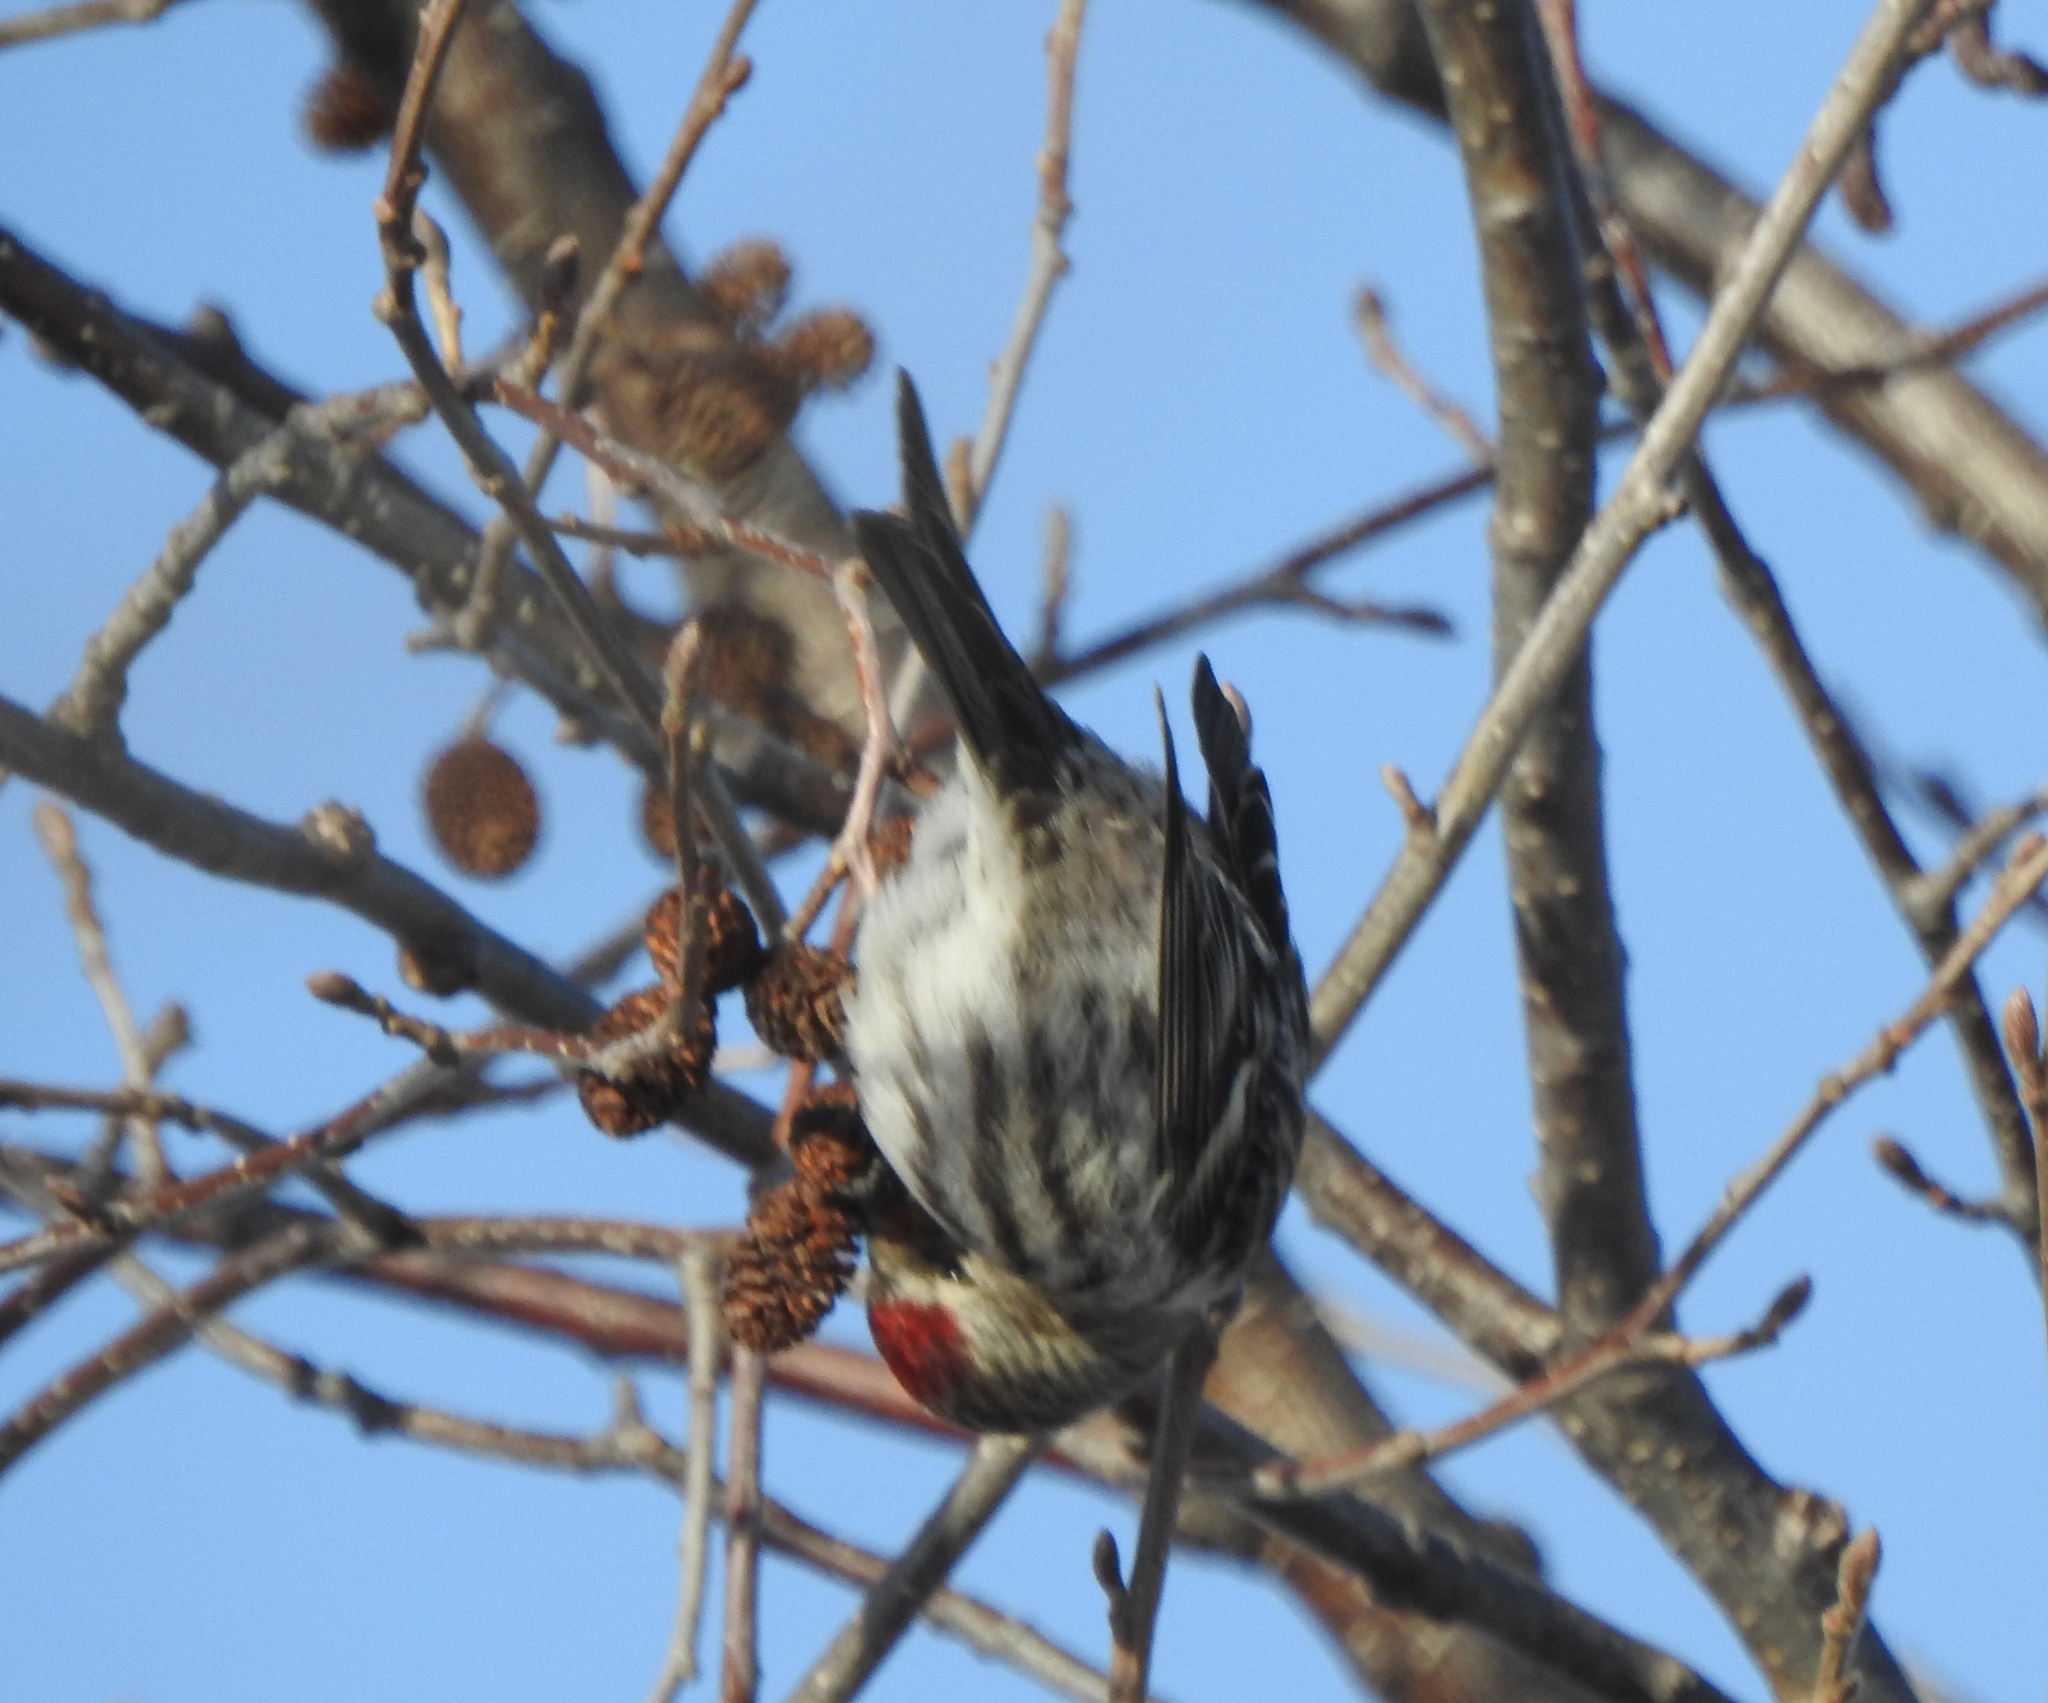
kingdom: Animalia
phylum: Chordata
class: Aves
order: Passeriformes
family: Fringillidae
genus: Acanthis
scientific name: Acanthis flammea
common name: Common redpoll
